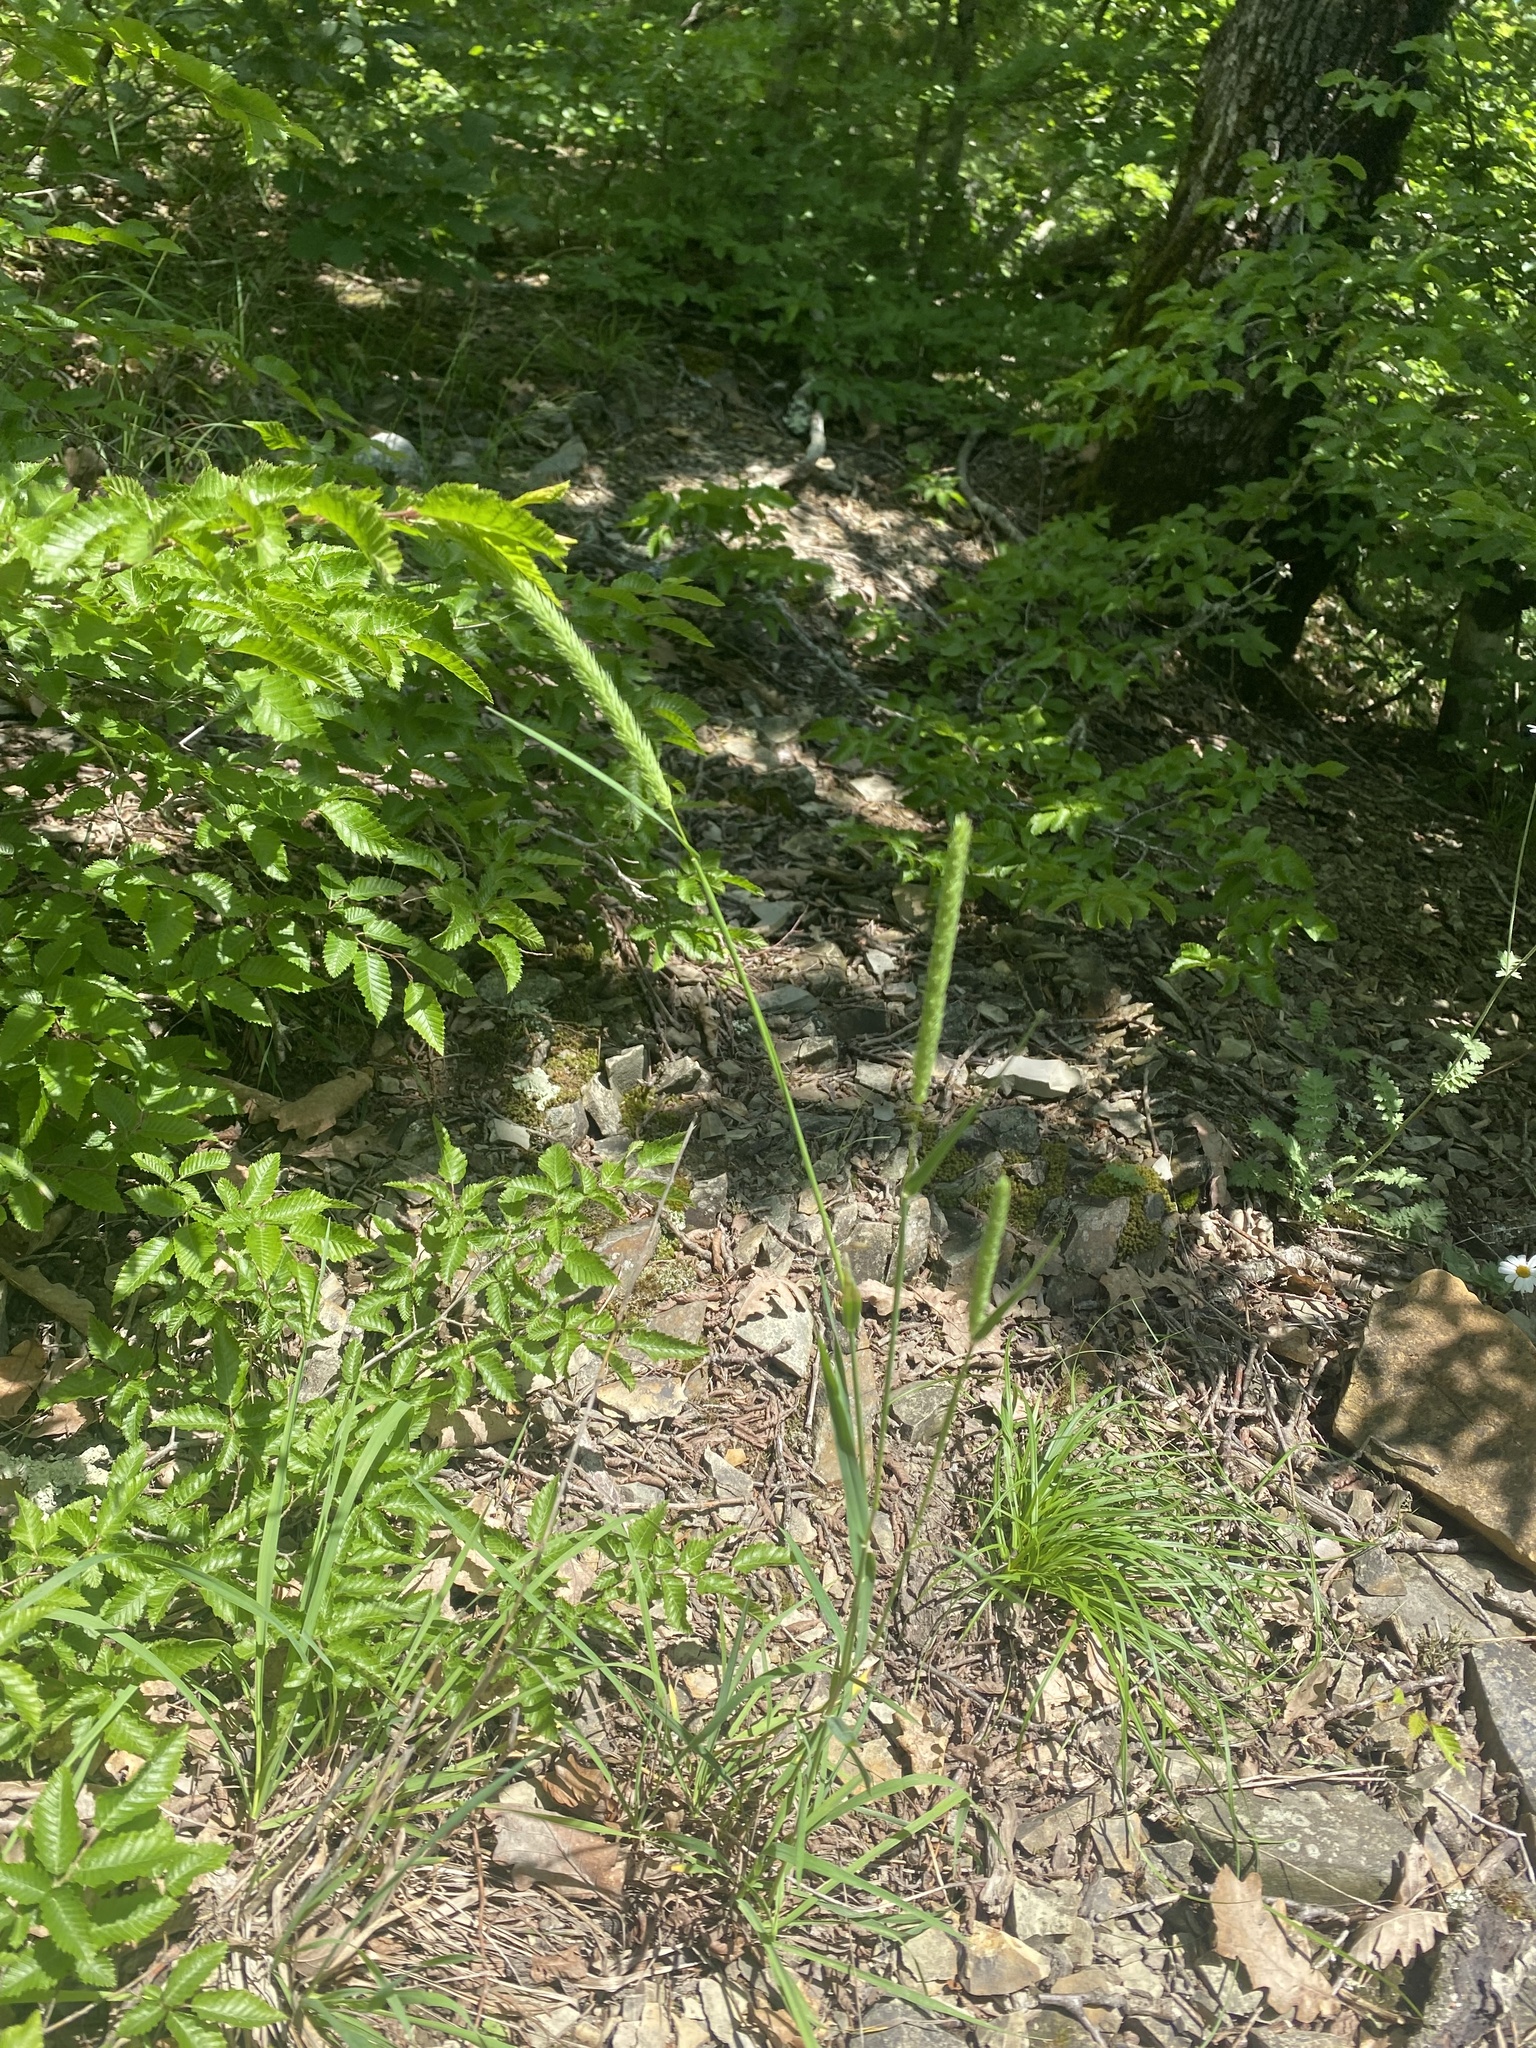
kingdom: Plantae
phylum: Tracheophyta
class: Liliopsida
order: Poales
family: Poaceae
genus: Phleum
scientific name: Phleum pratense
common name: Timothy grass
